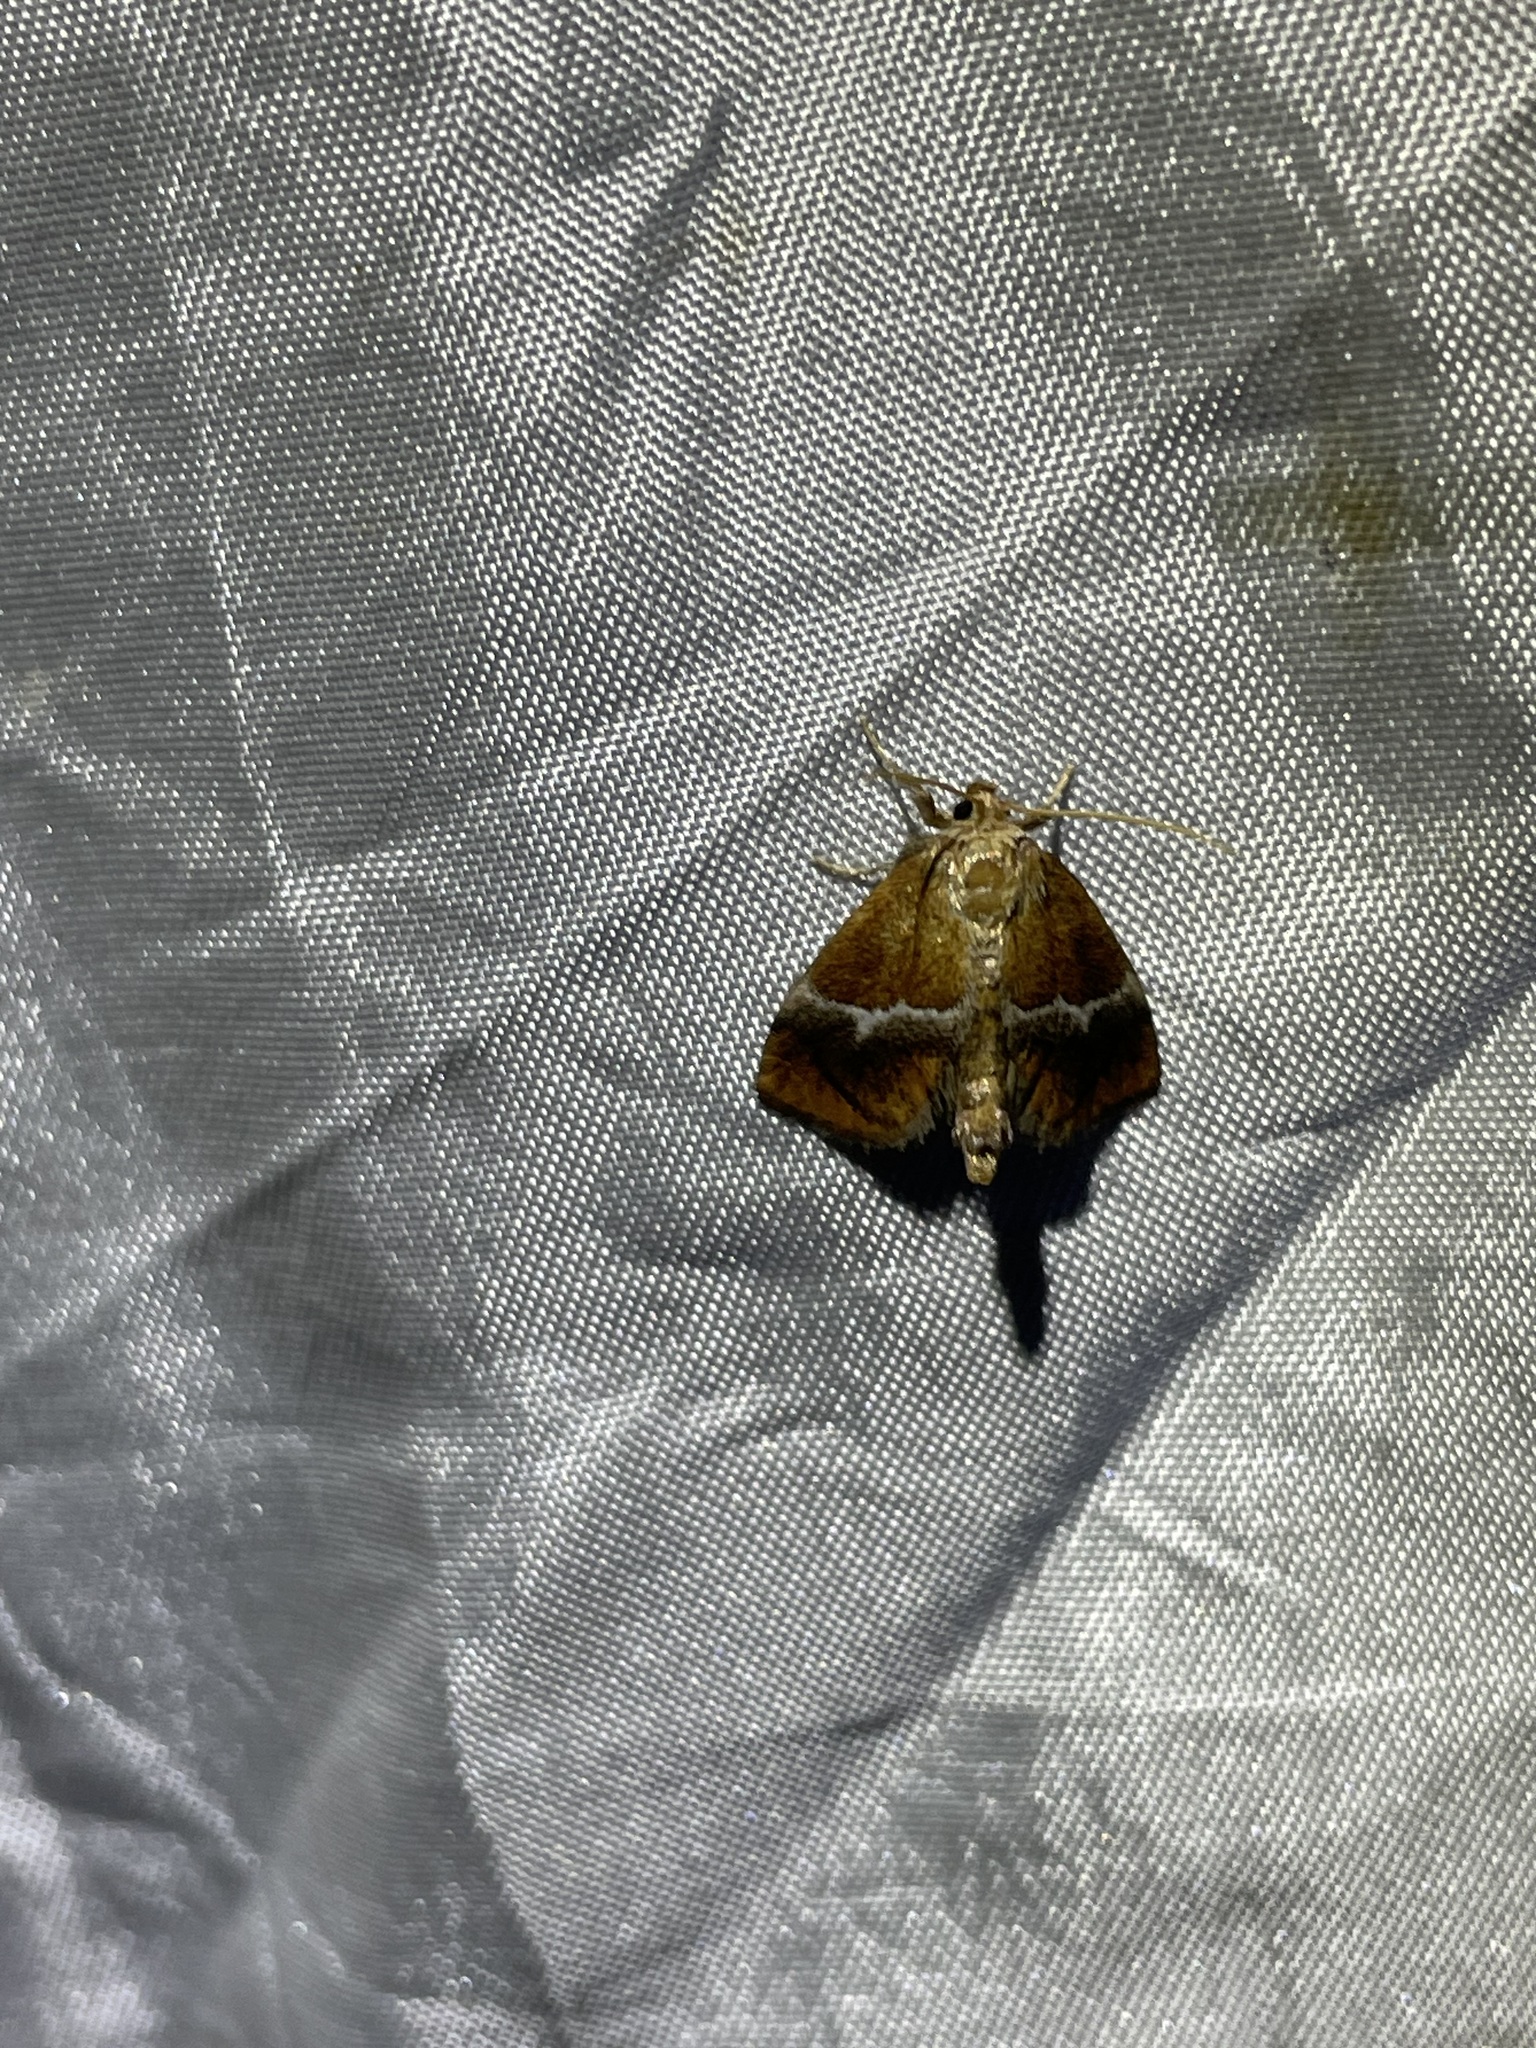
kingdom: Animalia
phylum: Arthropoda
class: Insecta
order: Lepidoptera
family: Limacodidae
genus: Lithacodes
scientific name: Lithacodes fasciola
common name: Yellow-shouldered slug moth
